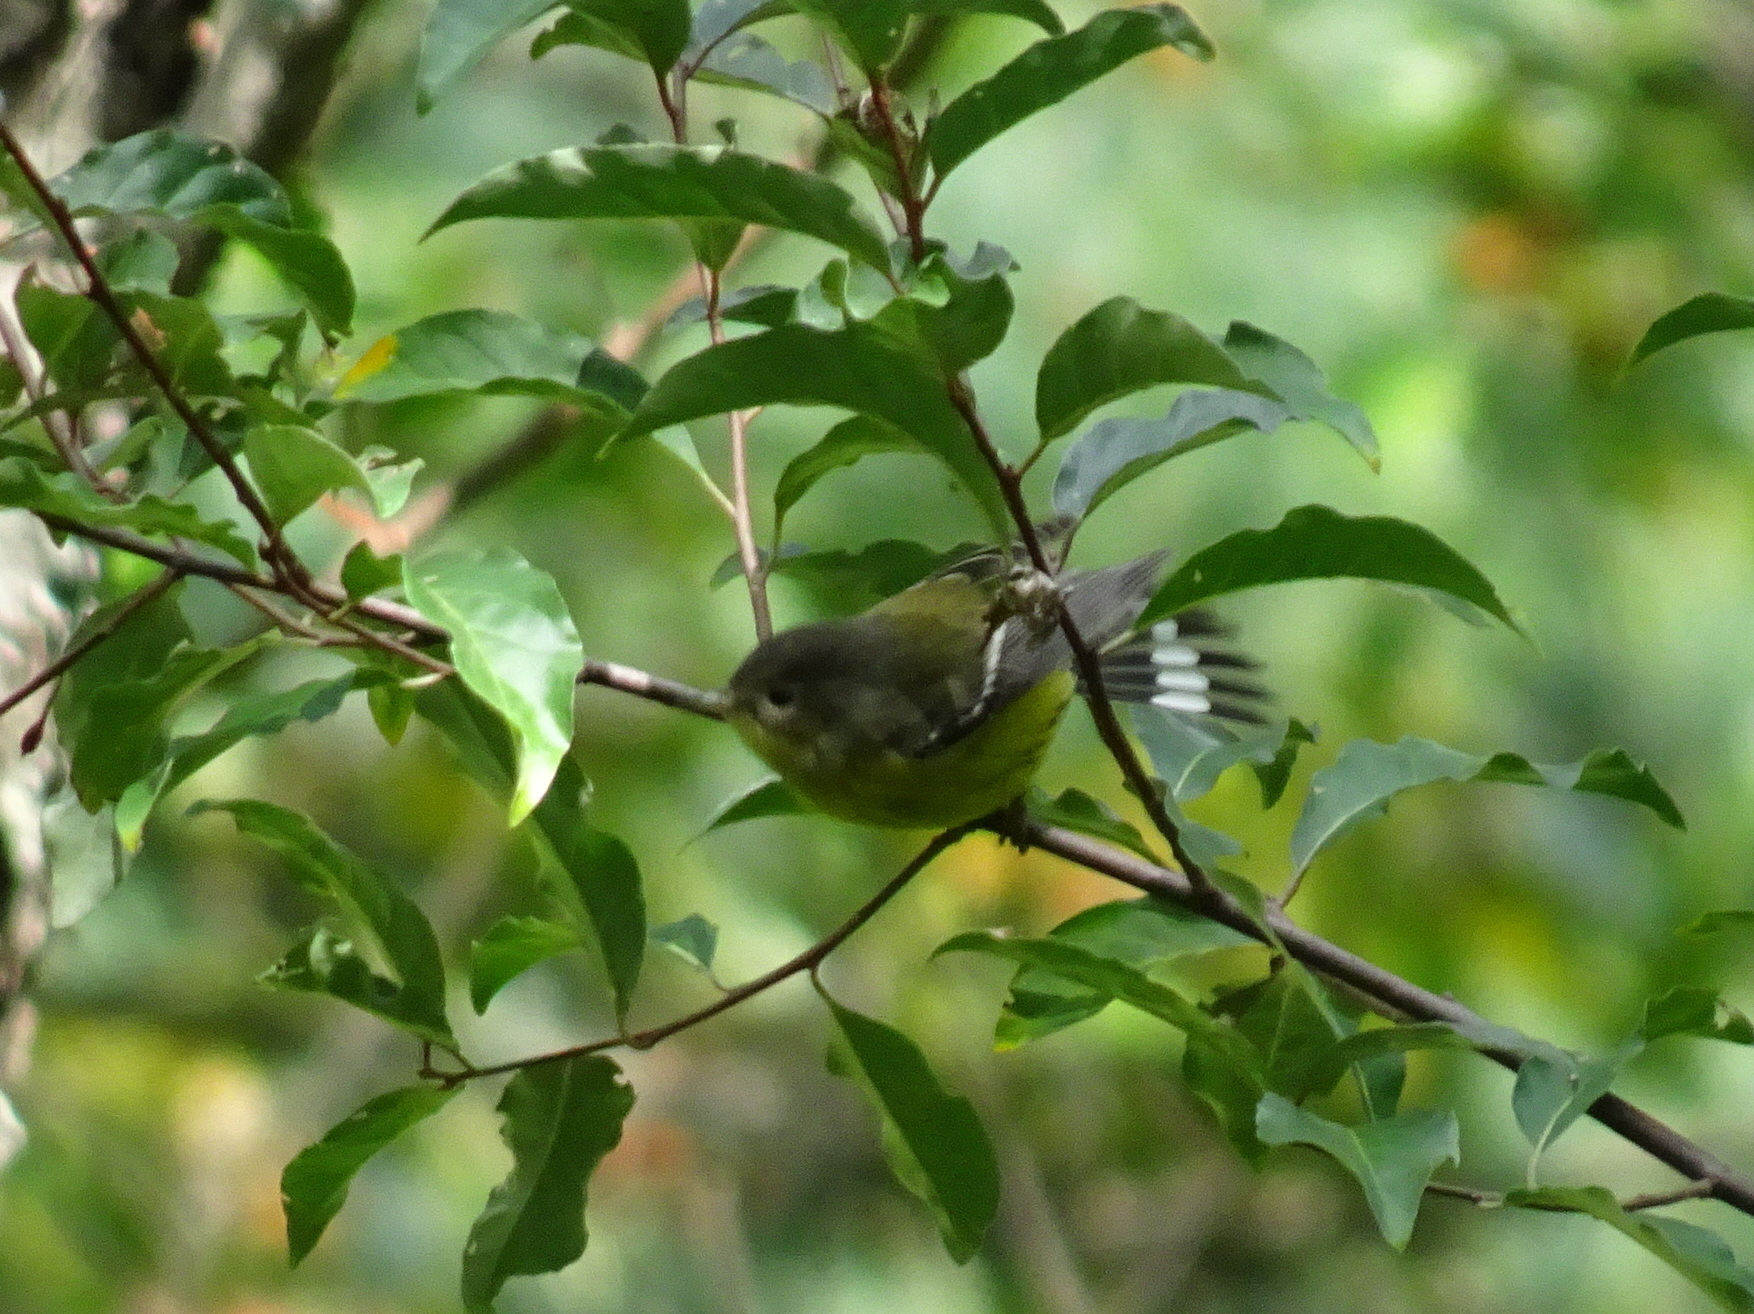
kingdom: Animalia
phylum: Chordata
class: Aves
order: Passeriformes
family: Parulidae
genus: Setophaga
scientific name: Setophaga magnolia
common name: Magnolia warbler
